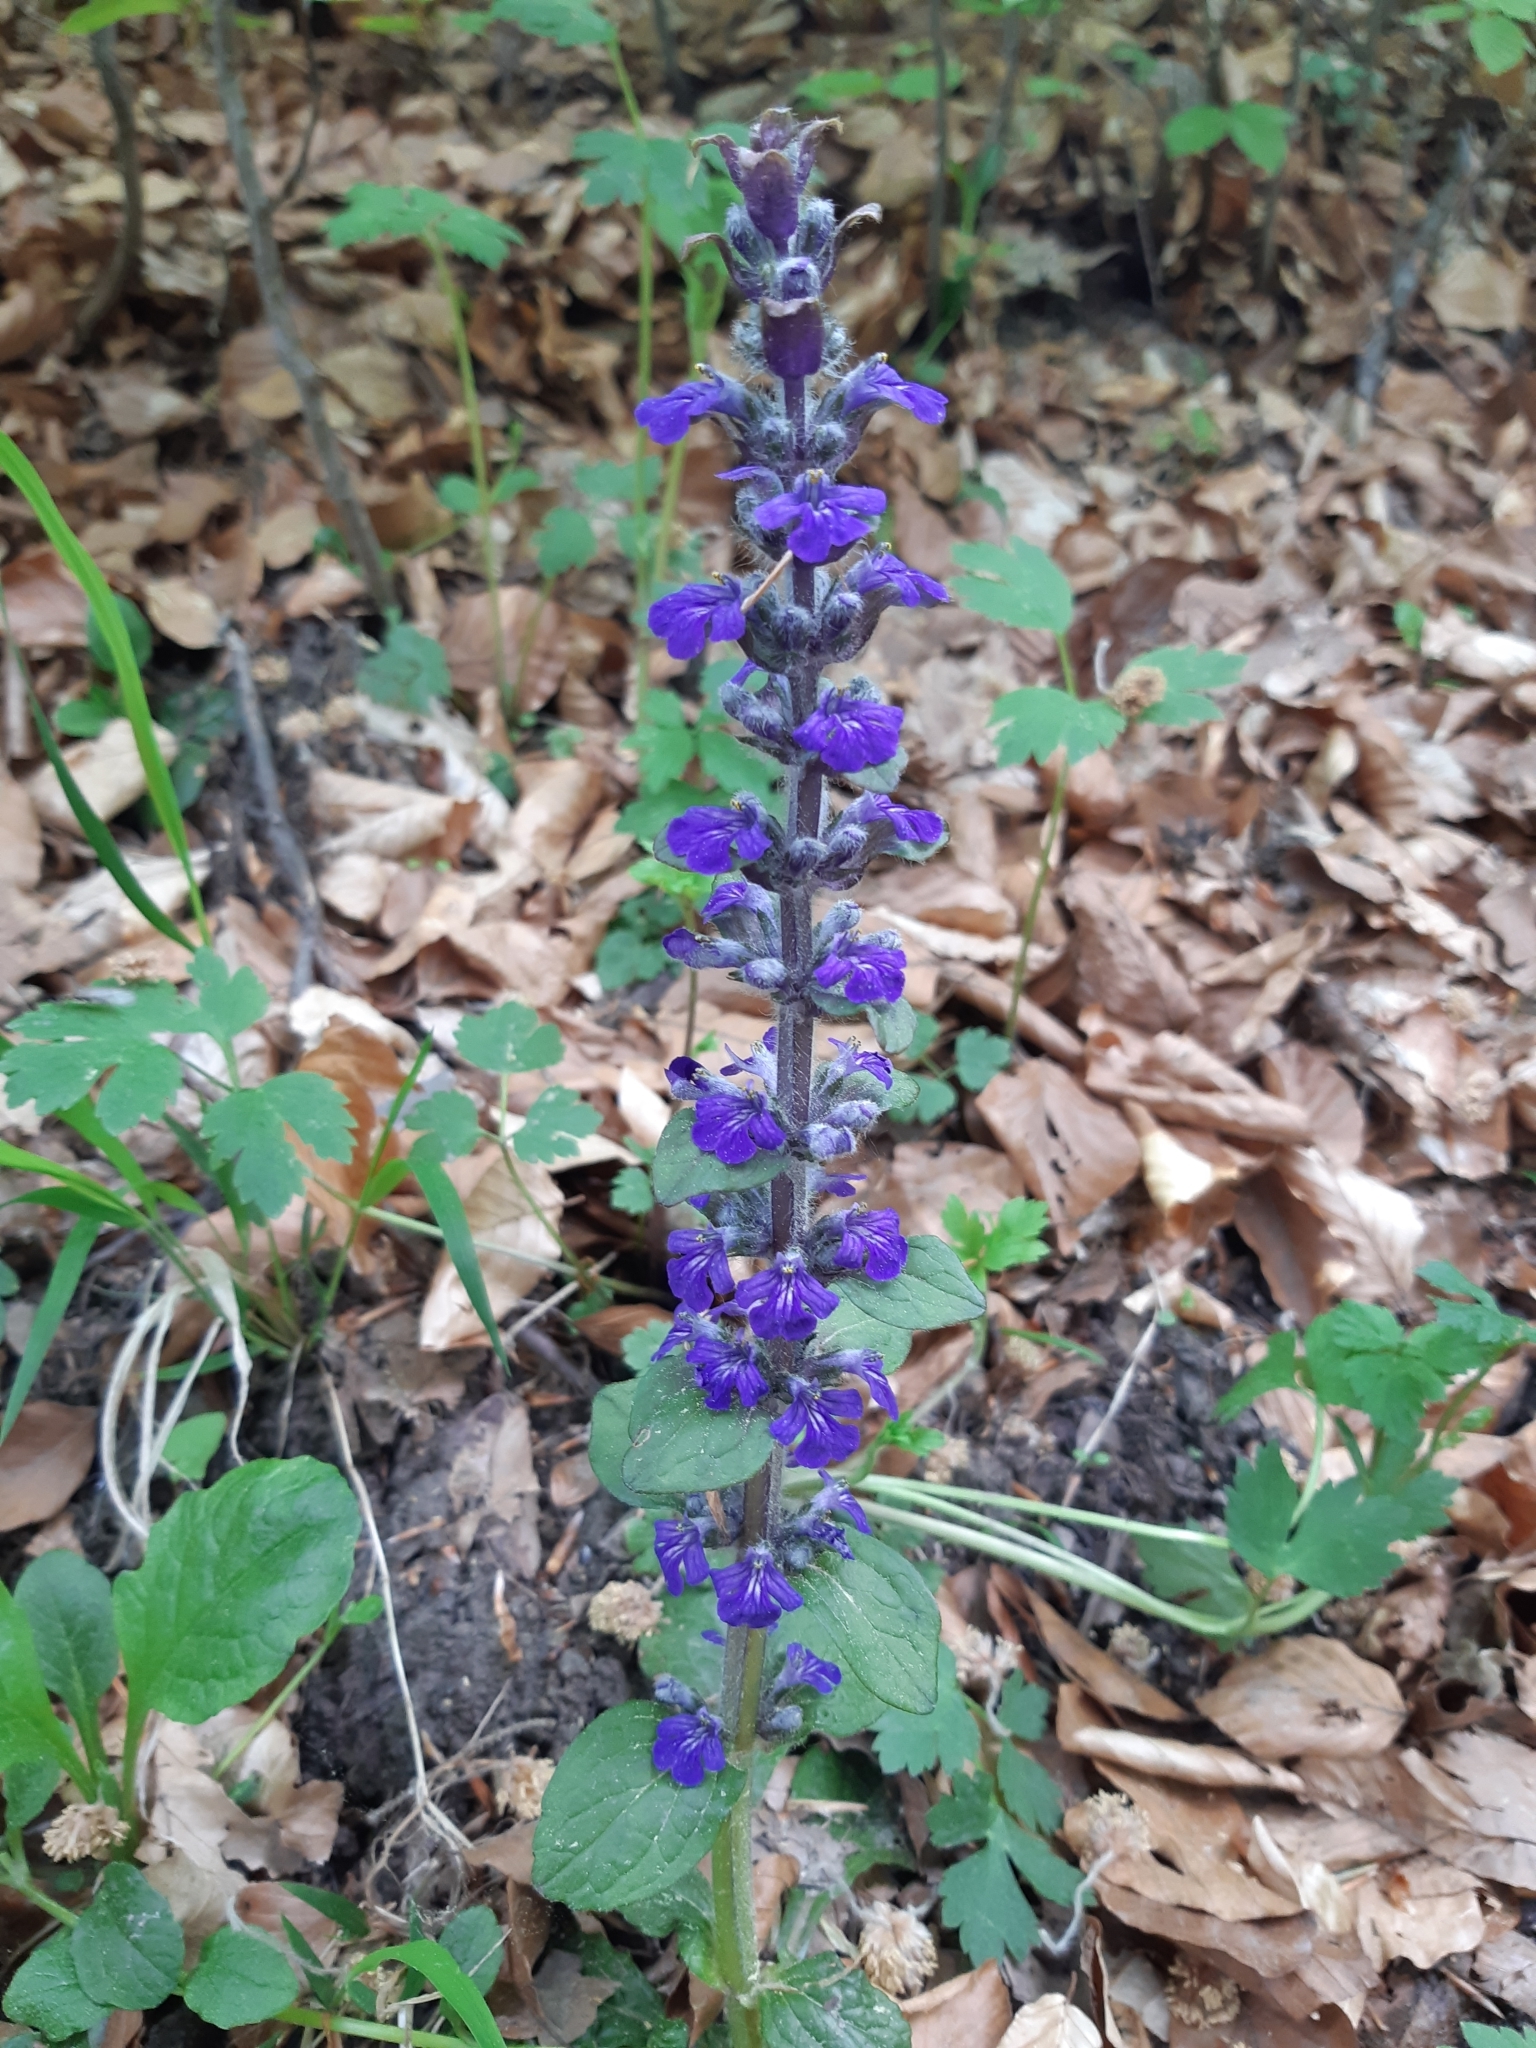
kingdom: Plantae
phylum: Tracheophyta
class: Magnoliopsida
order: Lamiales
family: Lamiaceae
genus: Ajuga
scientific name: Ajuga genevensis
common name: Blue bugle
